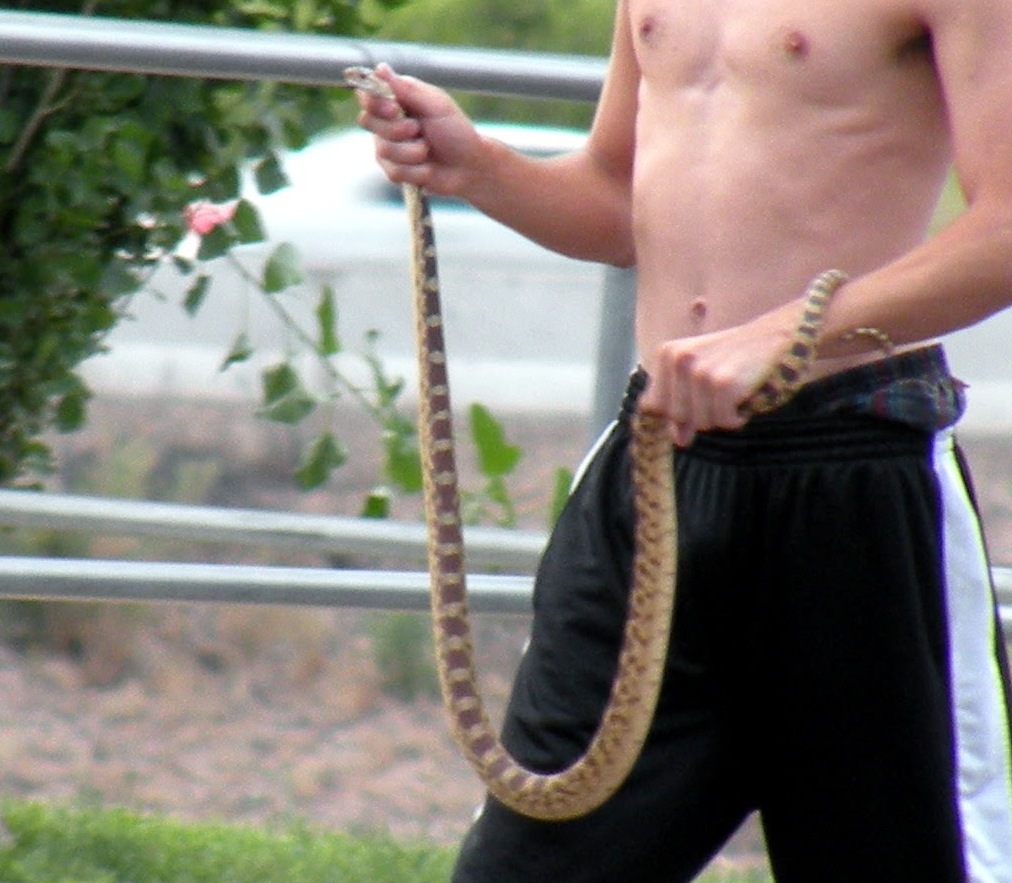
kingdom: Animalia
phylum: Chordata
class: Squamata
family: Colubridae
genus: Pituophis
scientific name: Pituophis catenifer
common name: Gopher snake
